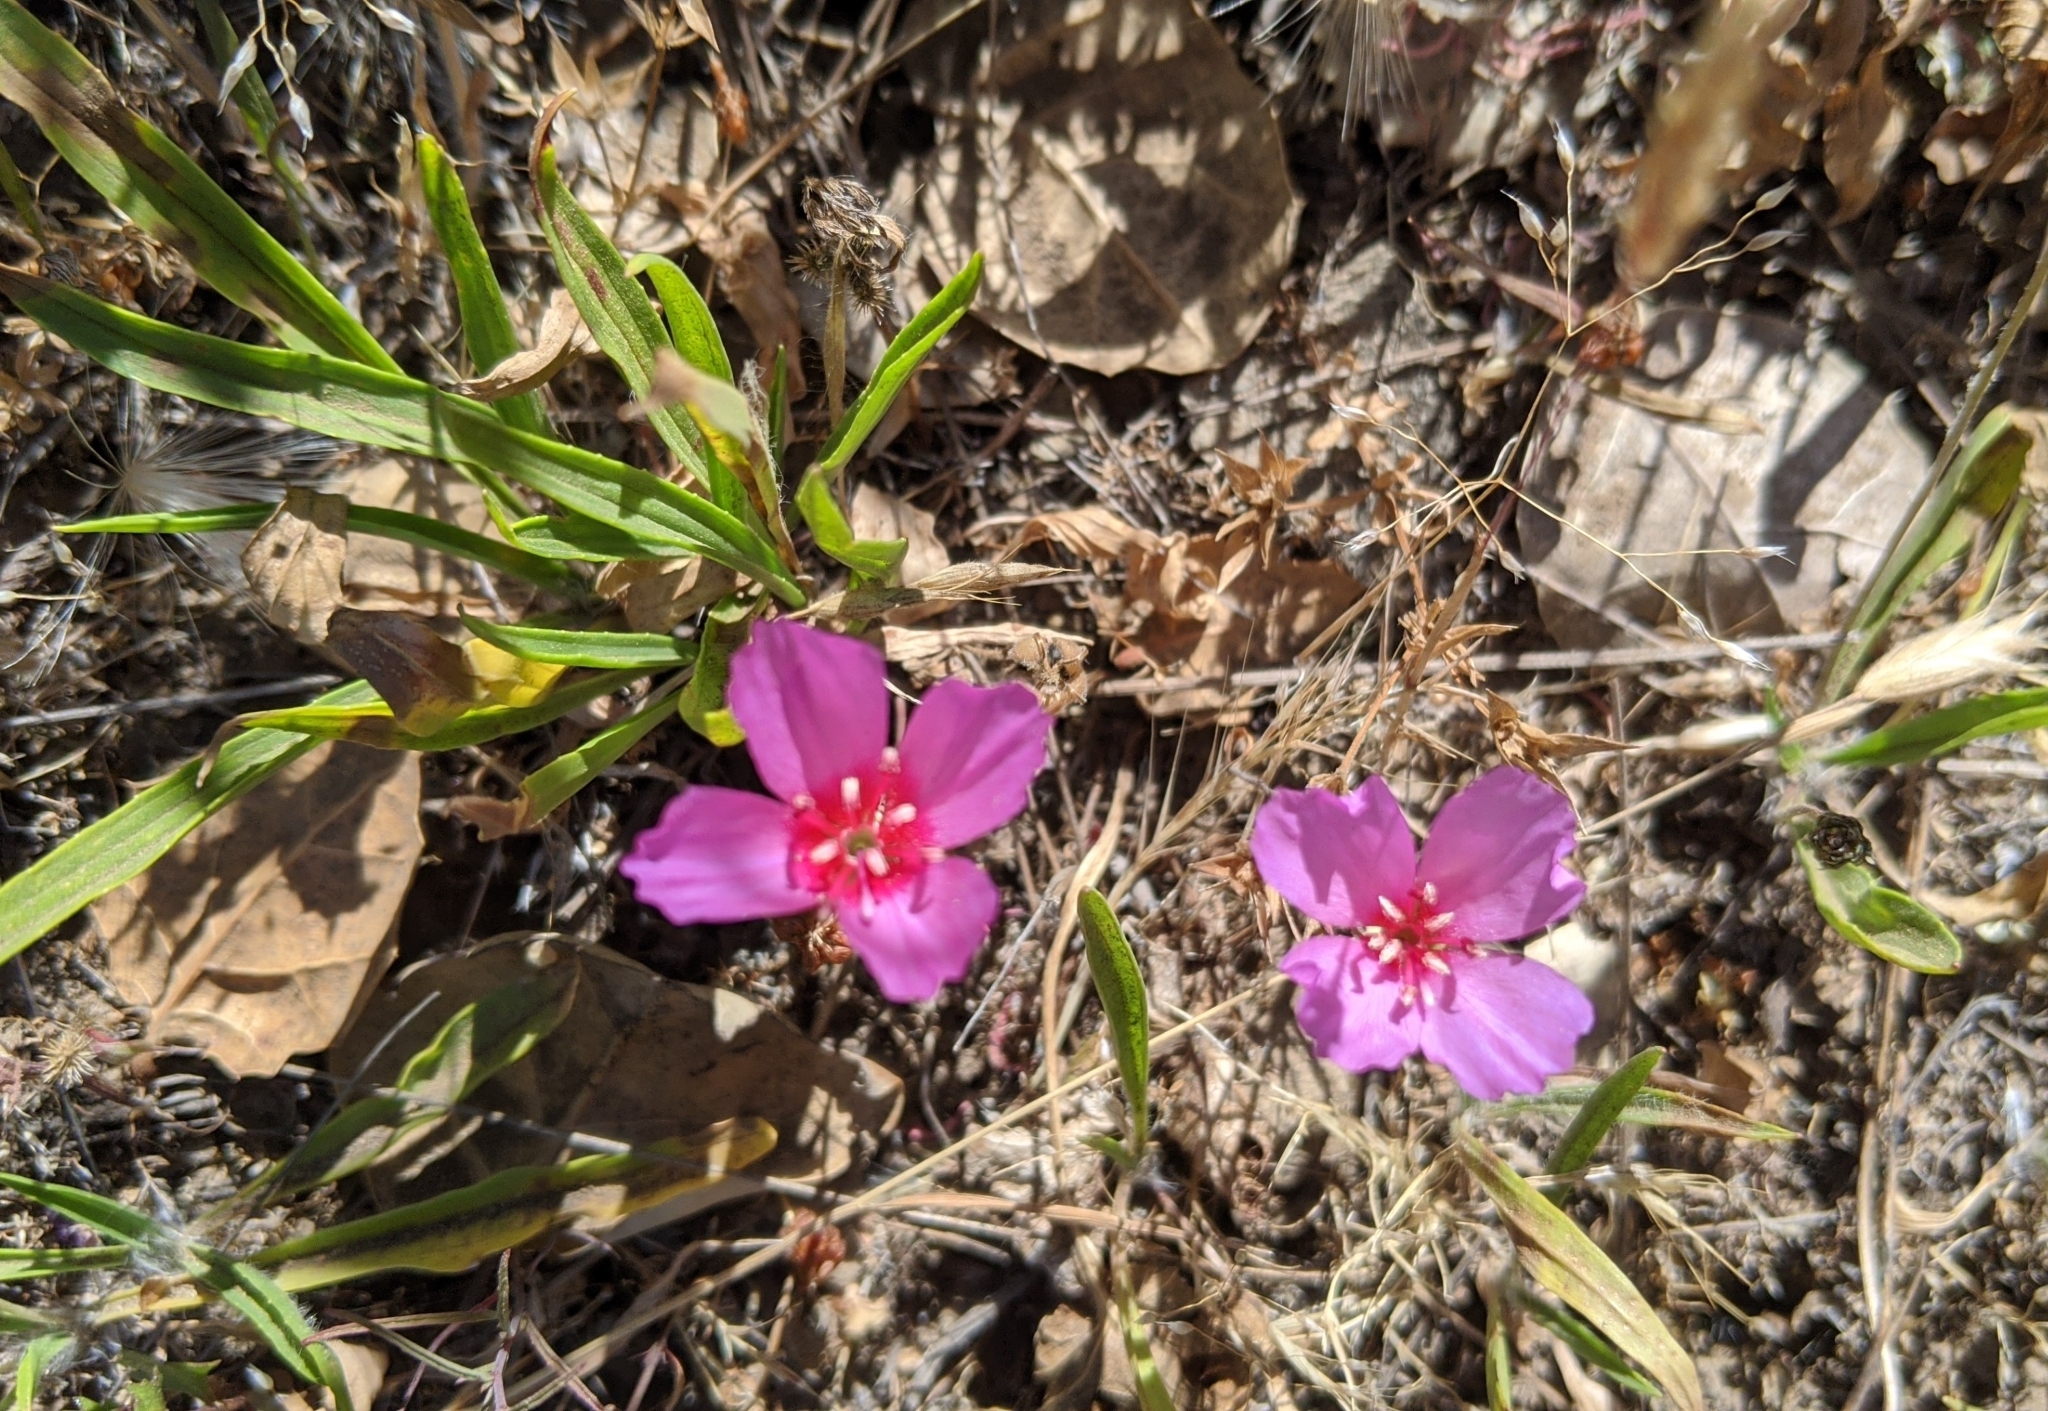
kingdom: Plantae
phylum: Tracheophyta
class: Magnoliopsida
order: Myrtales
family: Onagraceae
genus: Clarkia
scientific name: Clarkia rubicunda
